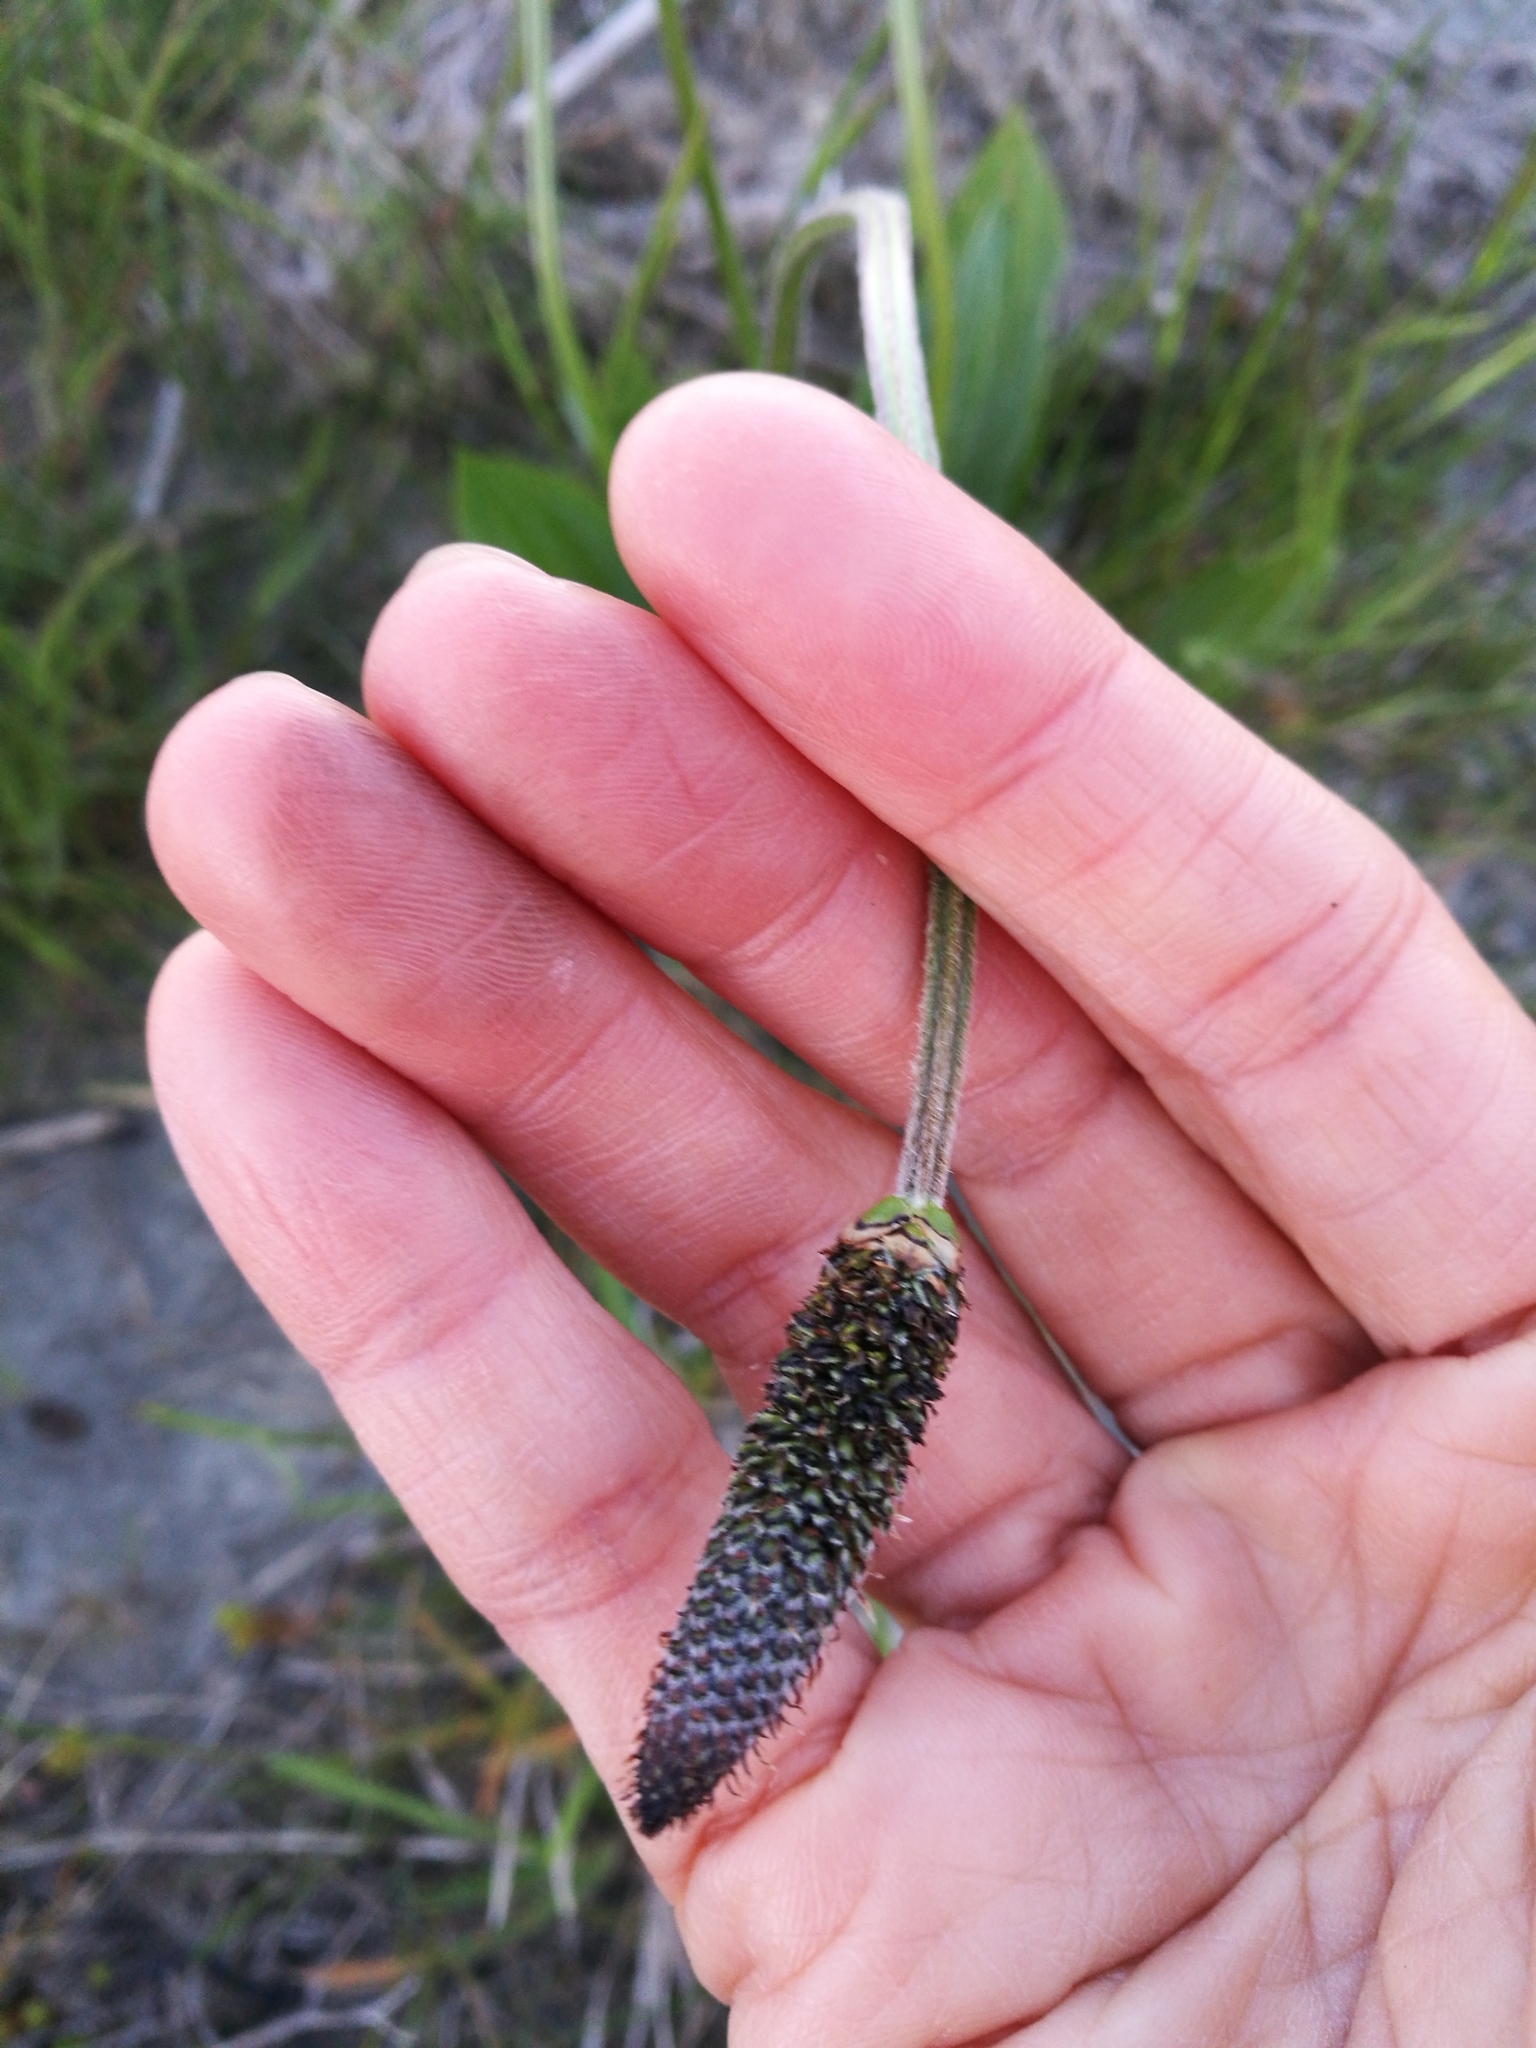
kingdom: Plantae
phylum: Tracheophyta
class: Magnoliopsida
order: Lamiales
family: Plantaginaceae
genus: Plantago
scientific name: Plantago lanceolata
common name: Ribwort plantain
